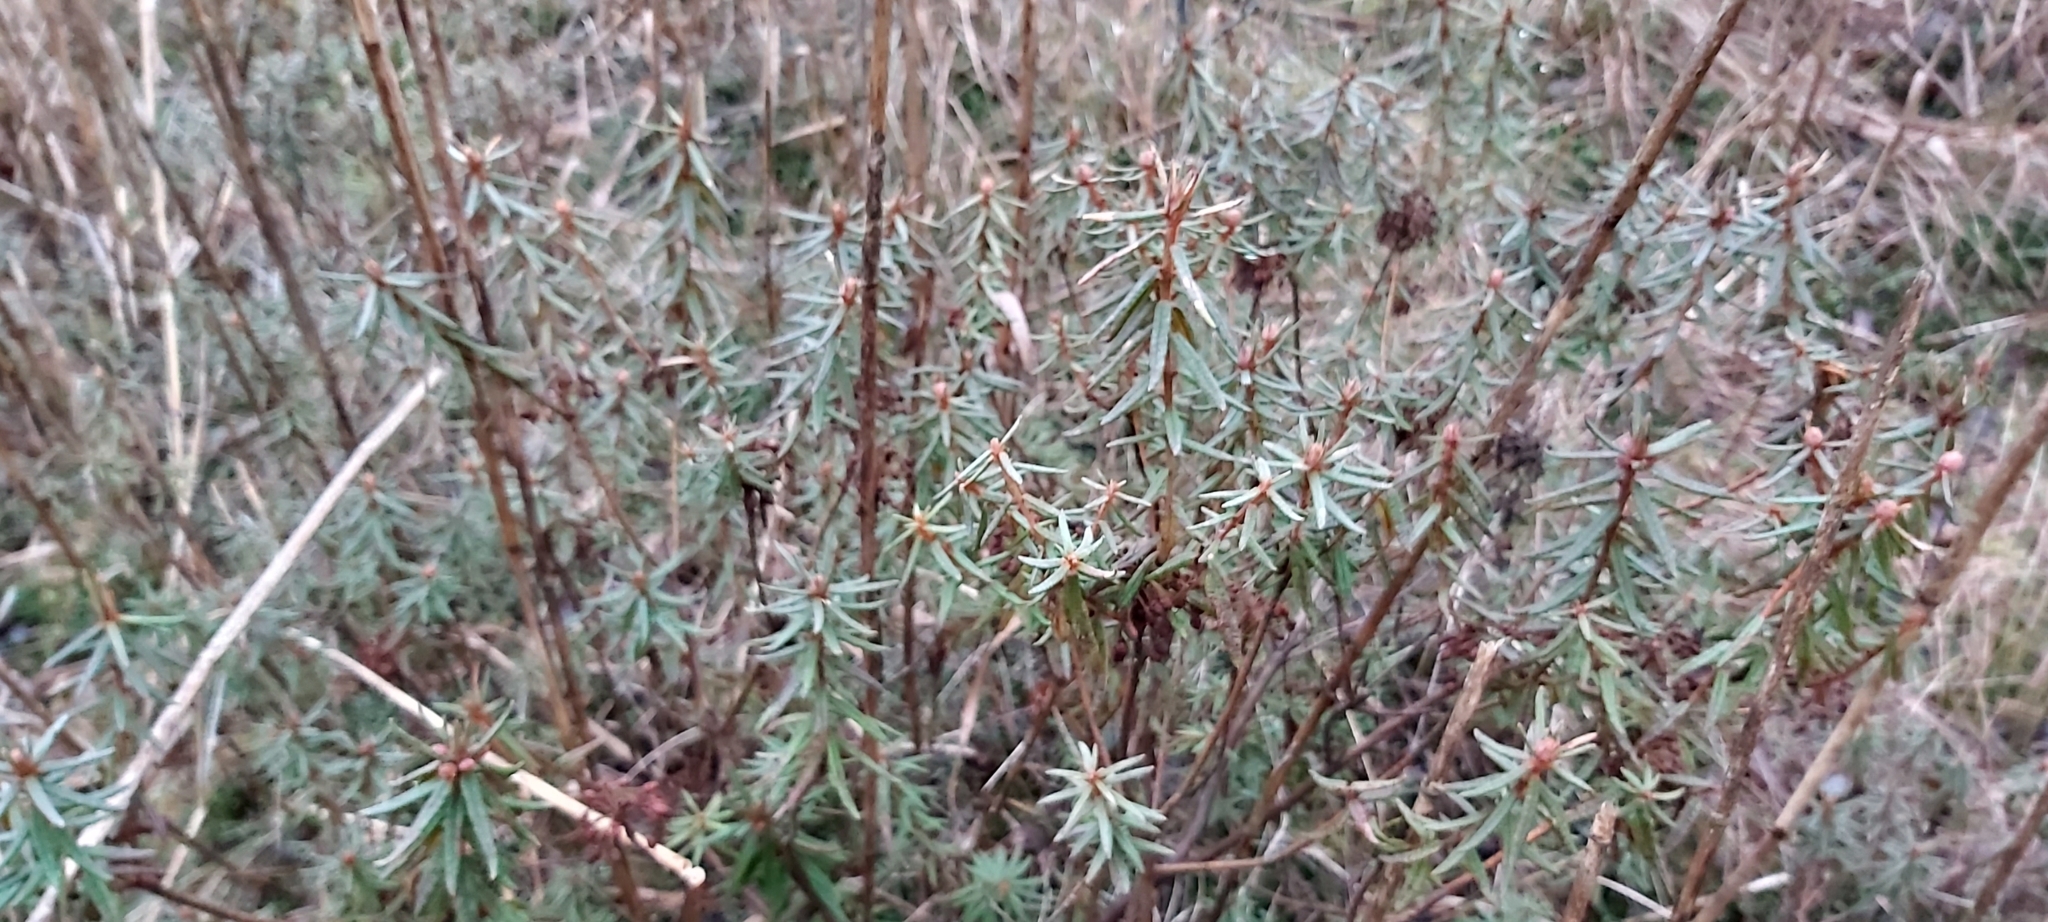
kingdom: Plantae
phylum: Tracheophyta
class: Magnoliopsida
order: Ericales
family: Ericaceae
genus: Rhododendron
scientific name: Rhododendron tomentosum
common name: Marsh labrador tea
